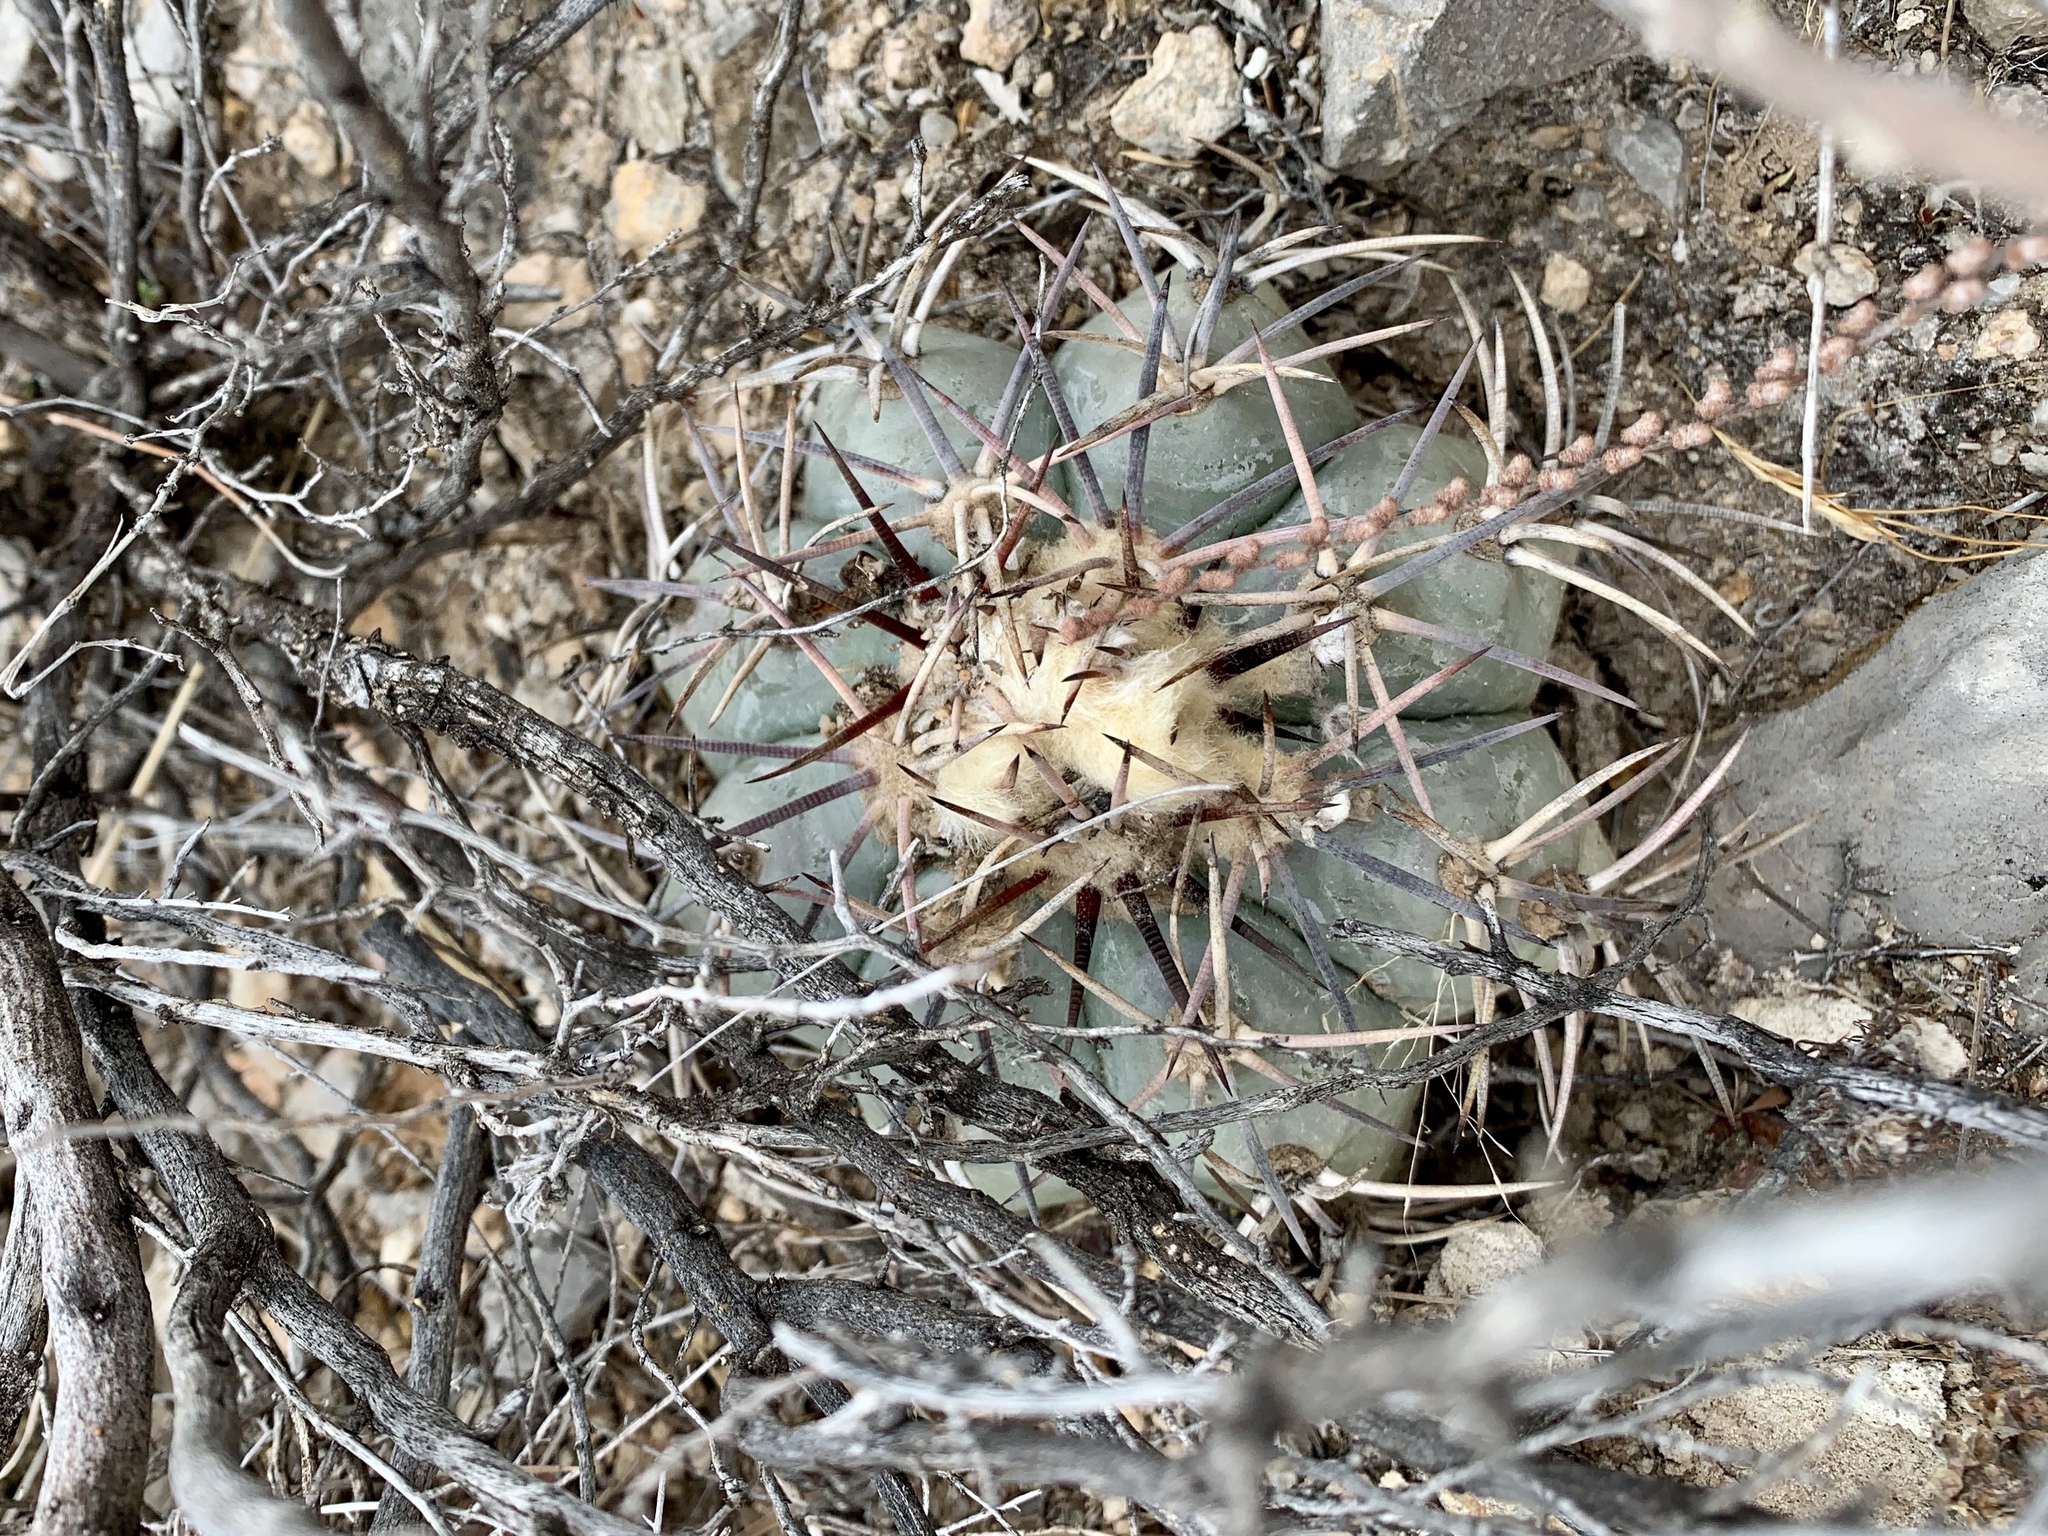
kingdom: Plantae
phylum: Tracheophyta
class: Magnoliopsida
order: Caryophyllales
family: Cactaceae
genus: Echinocactus
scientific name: Echinocactus horizonthalonius
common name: Devilshead
